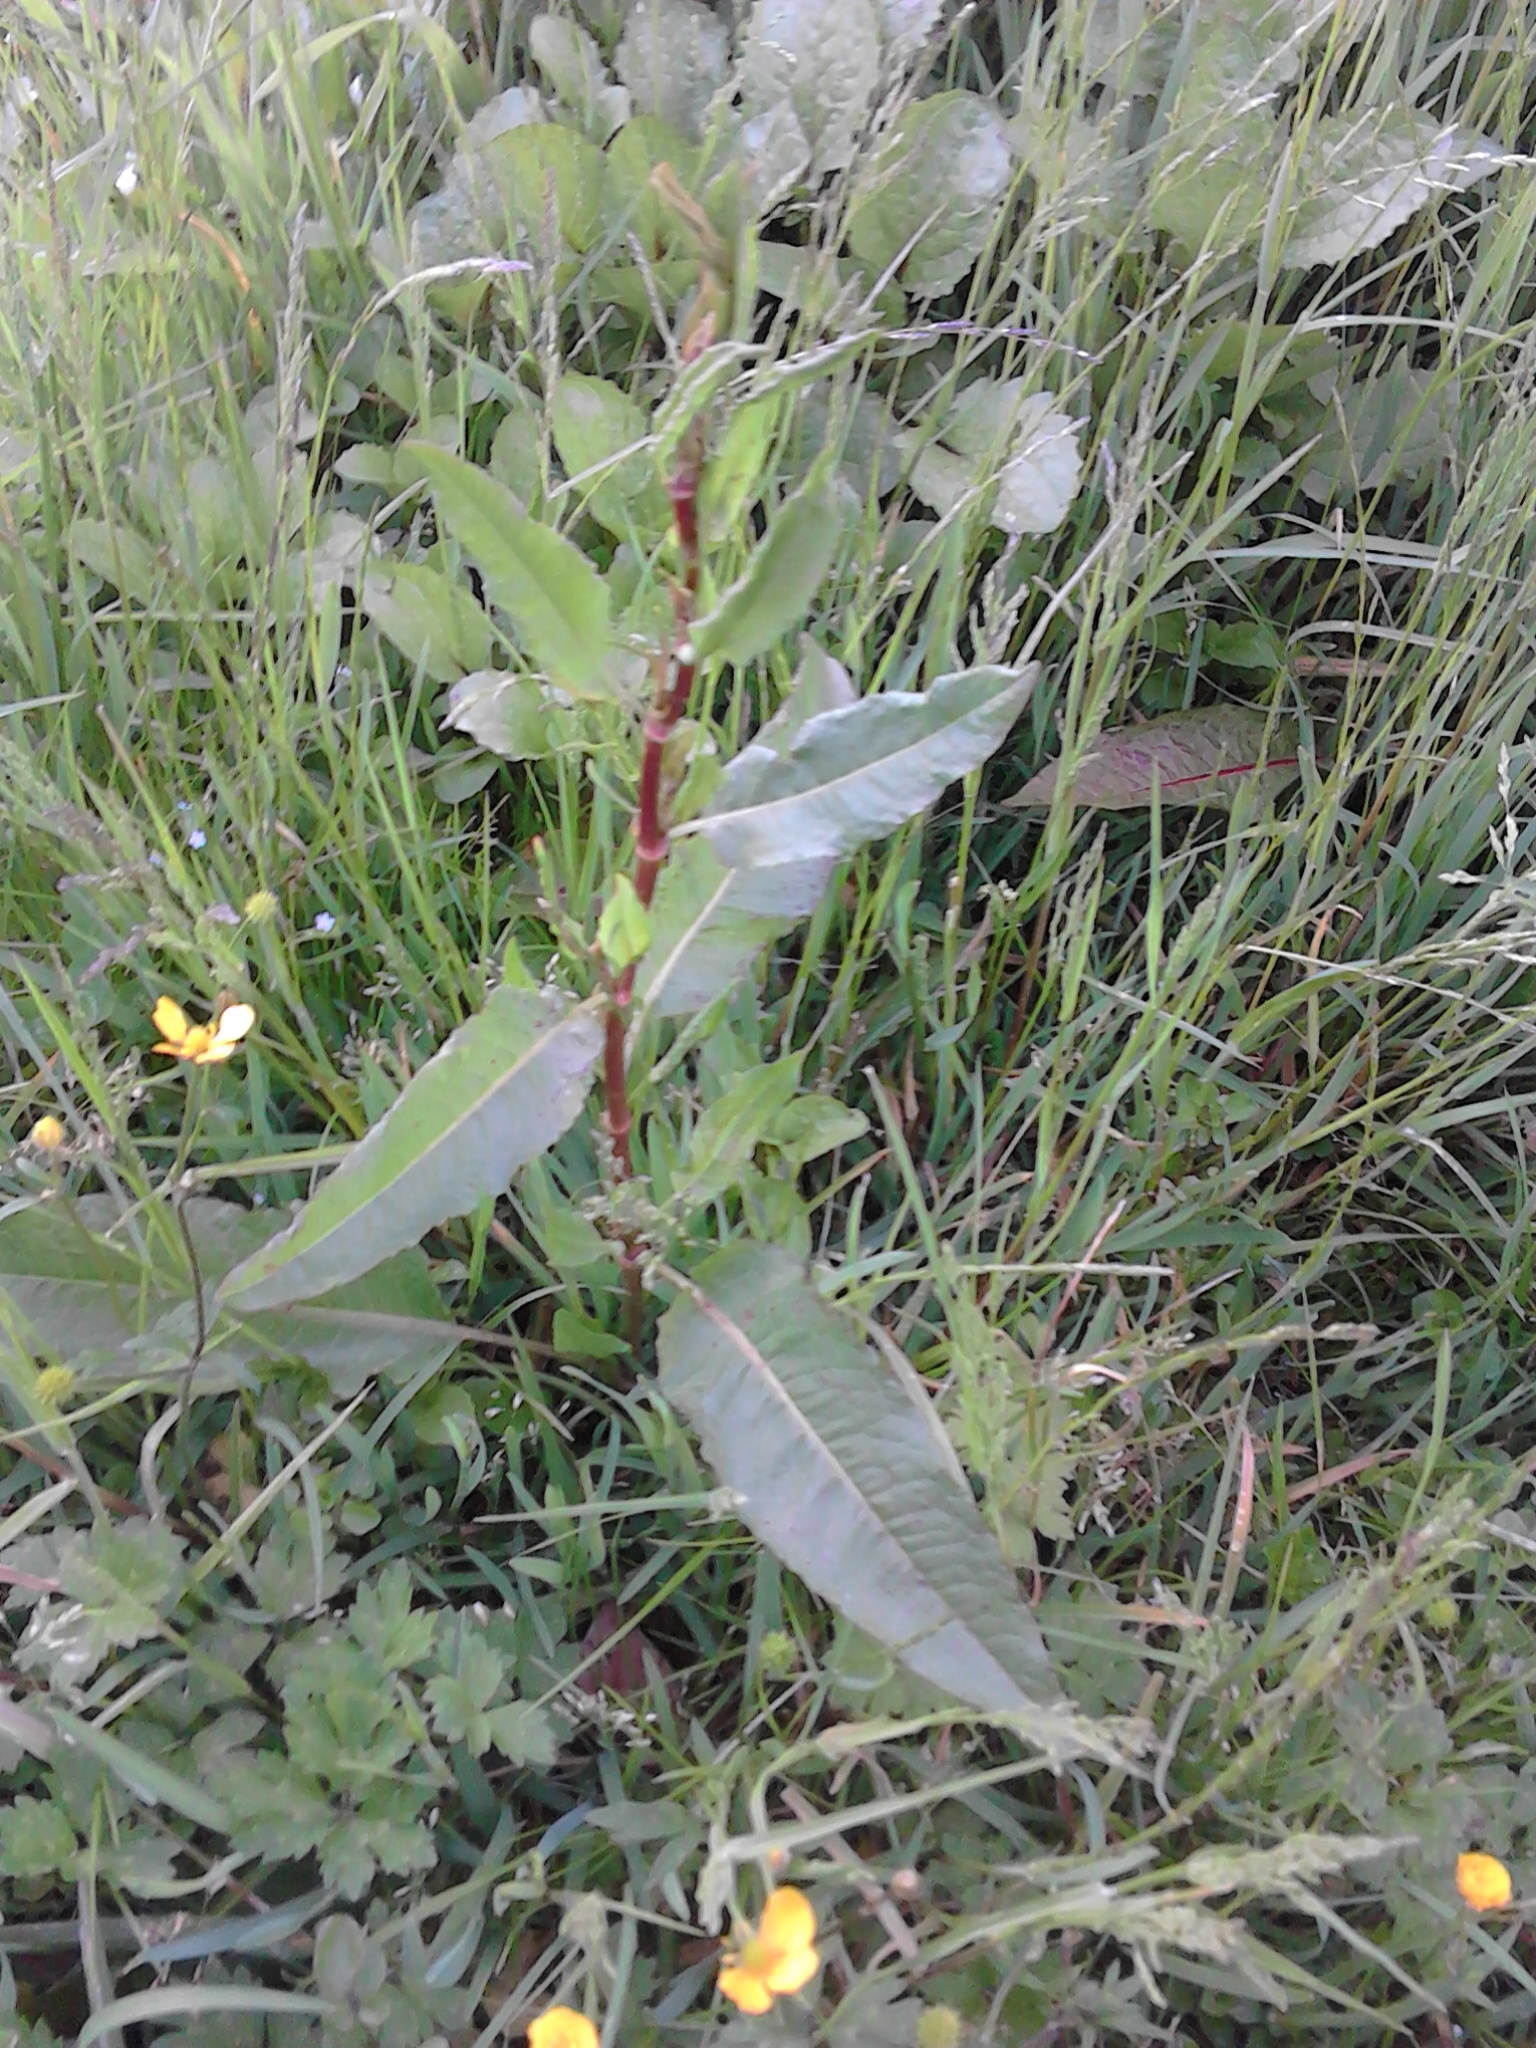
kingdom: Plantae
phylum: Tracheophyta
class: Magnoliopsida
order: Caryophyllales
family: Polygonaceae
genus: Rumex
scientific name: Rumex obtusifolius
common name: Bitter dock
